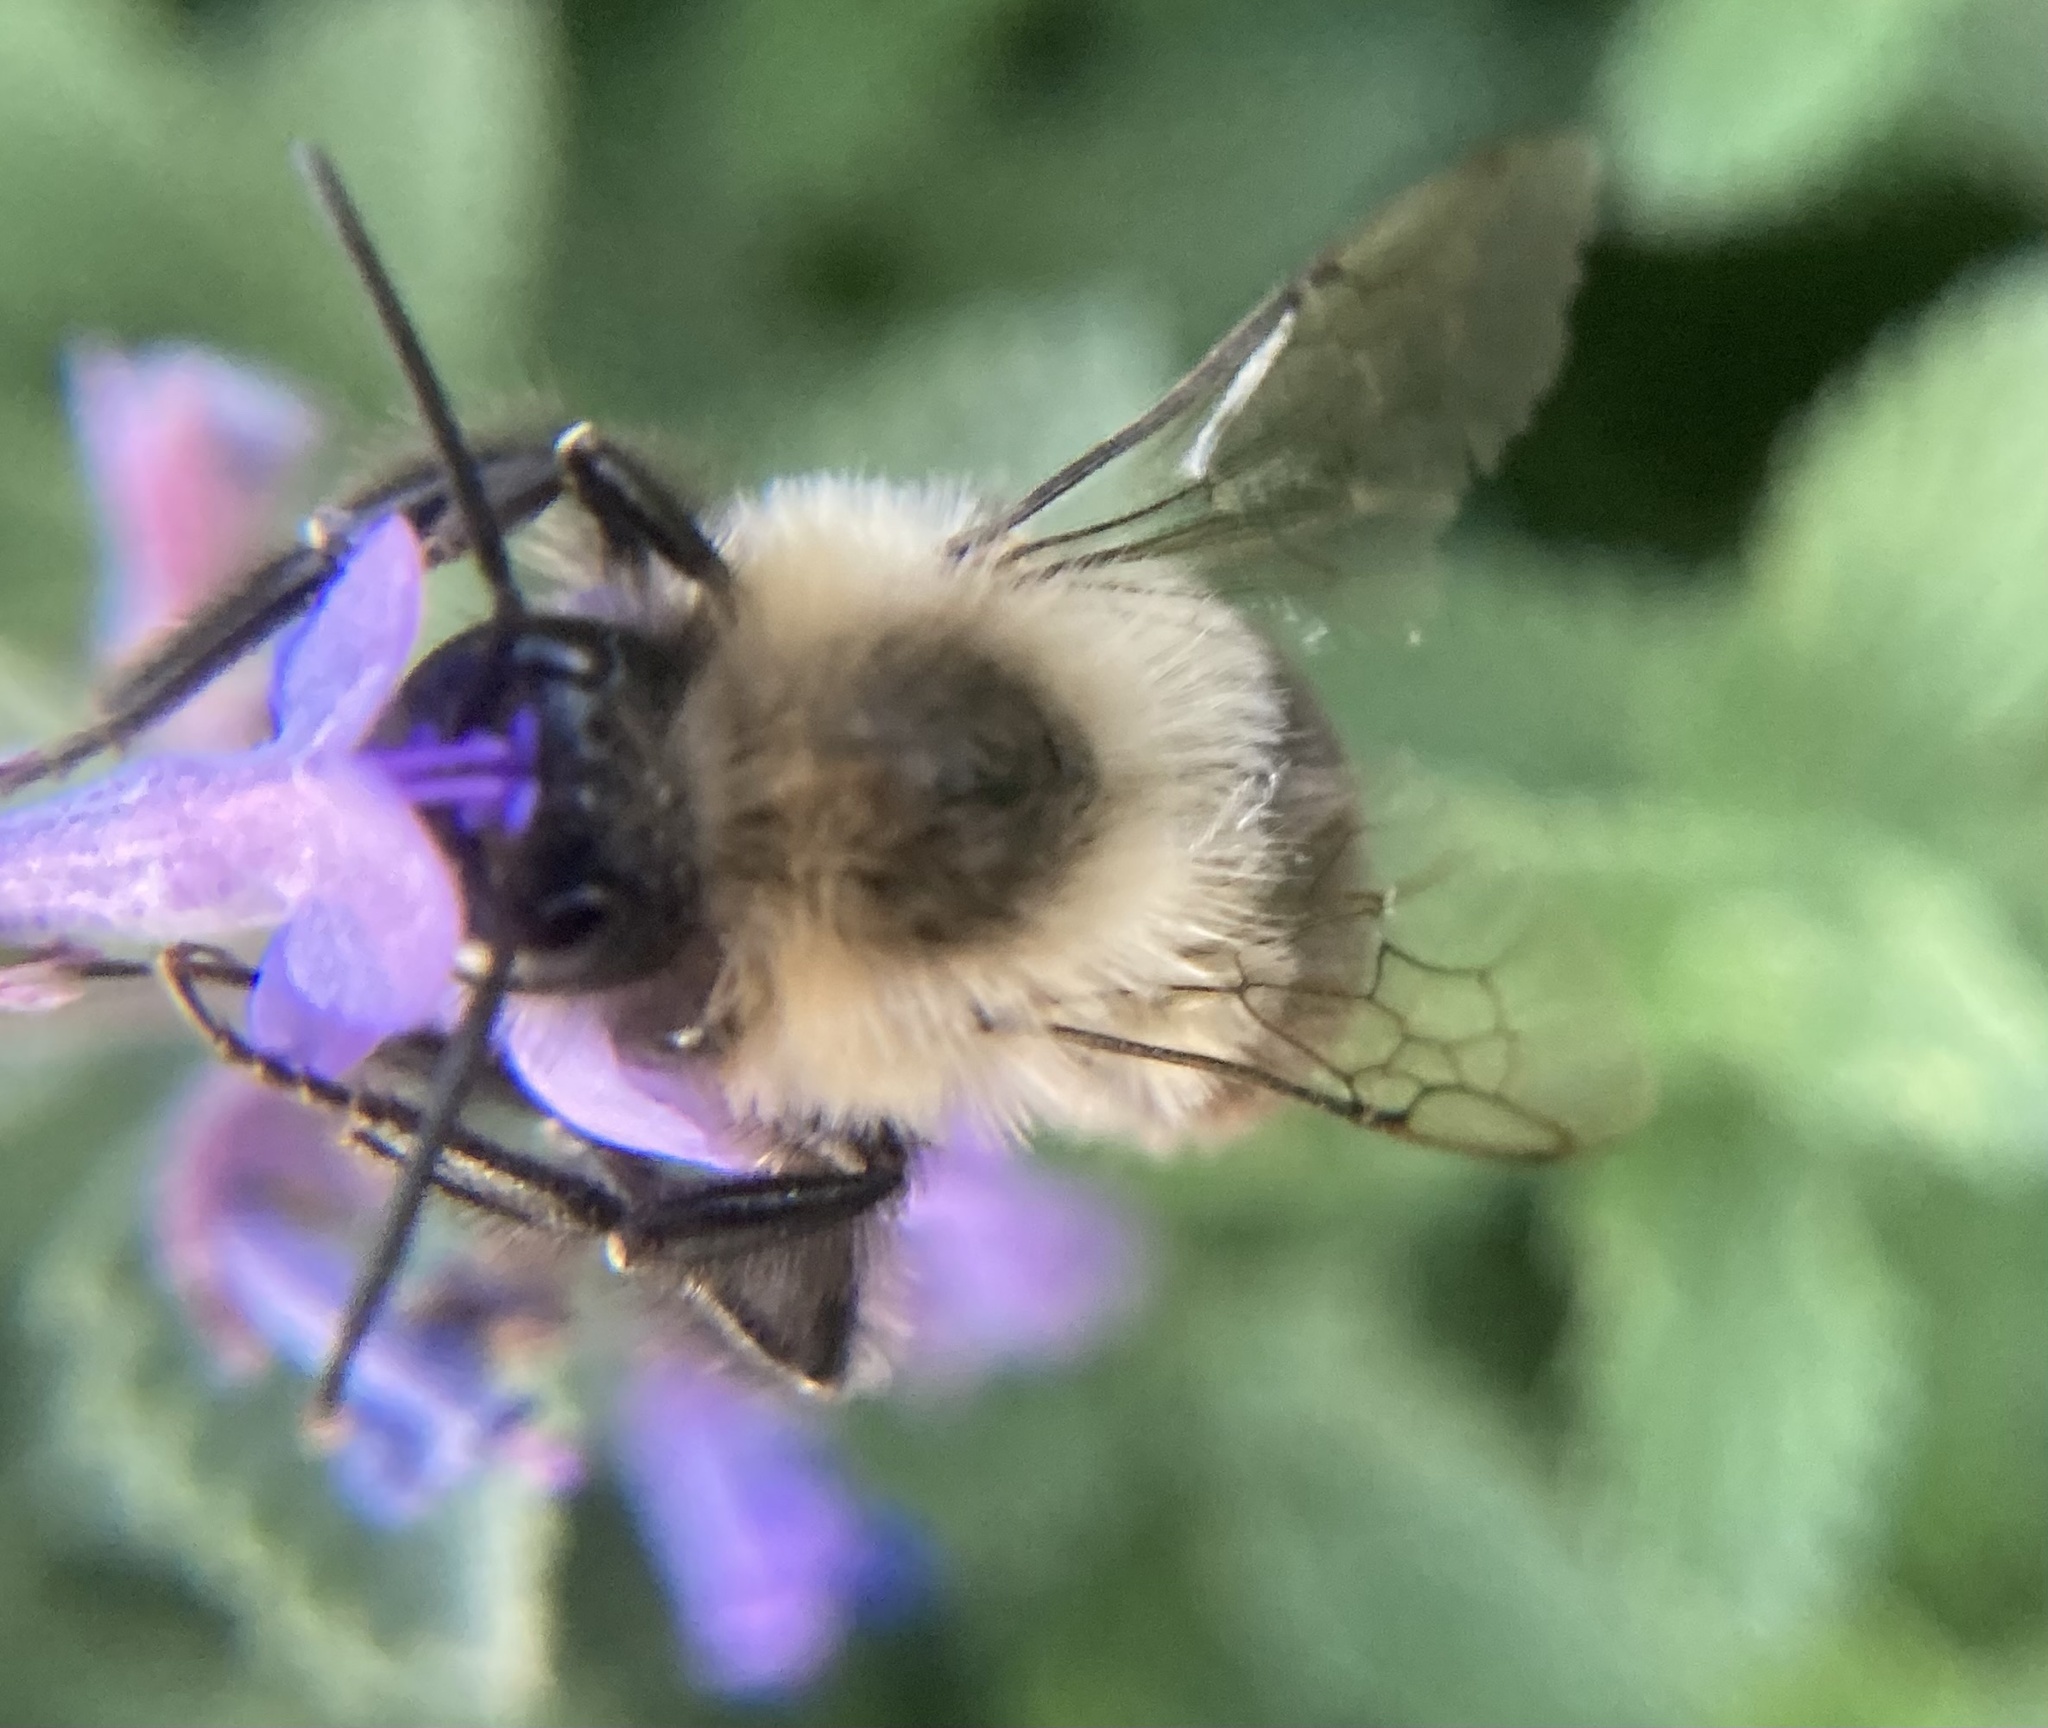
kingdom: Animalia
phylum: Arthropoda
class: Insecta
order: Hymenoptera
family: Apidae
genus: Bombus
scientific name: Bombus impatiens
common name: Common eastern bumble bee
